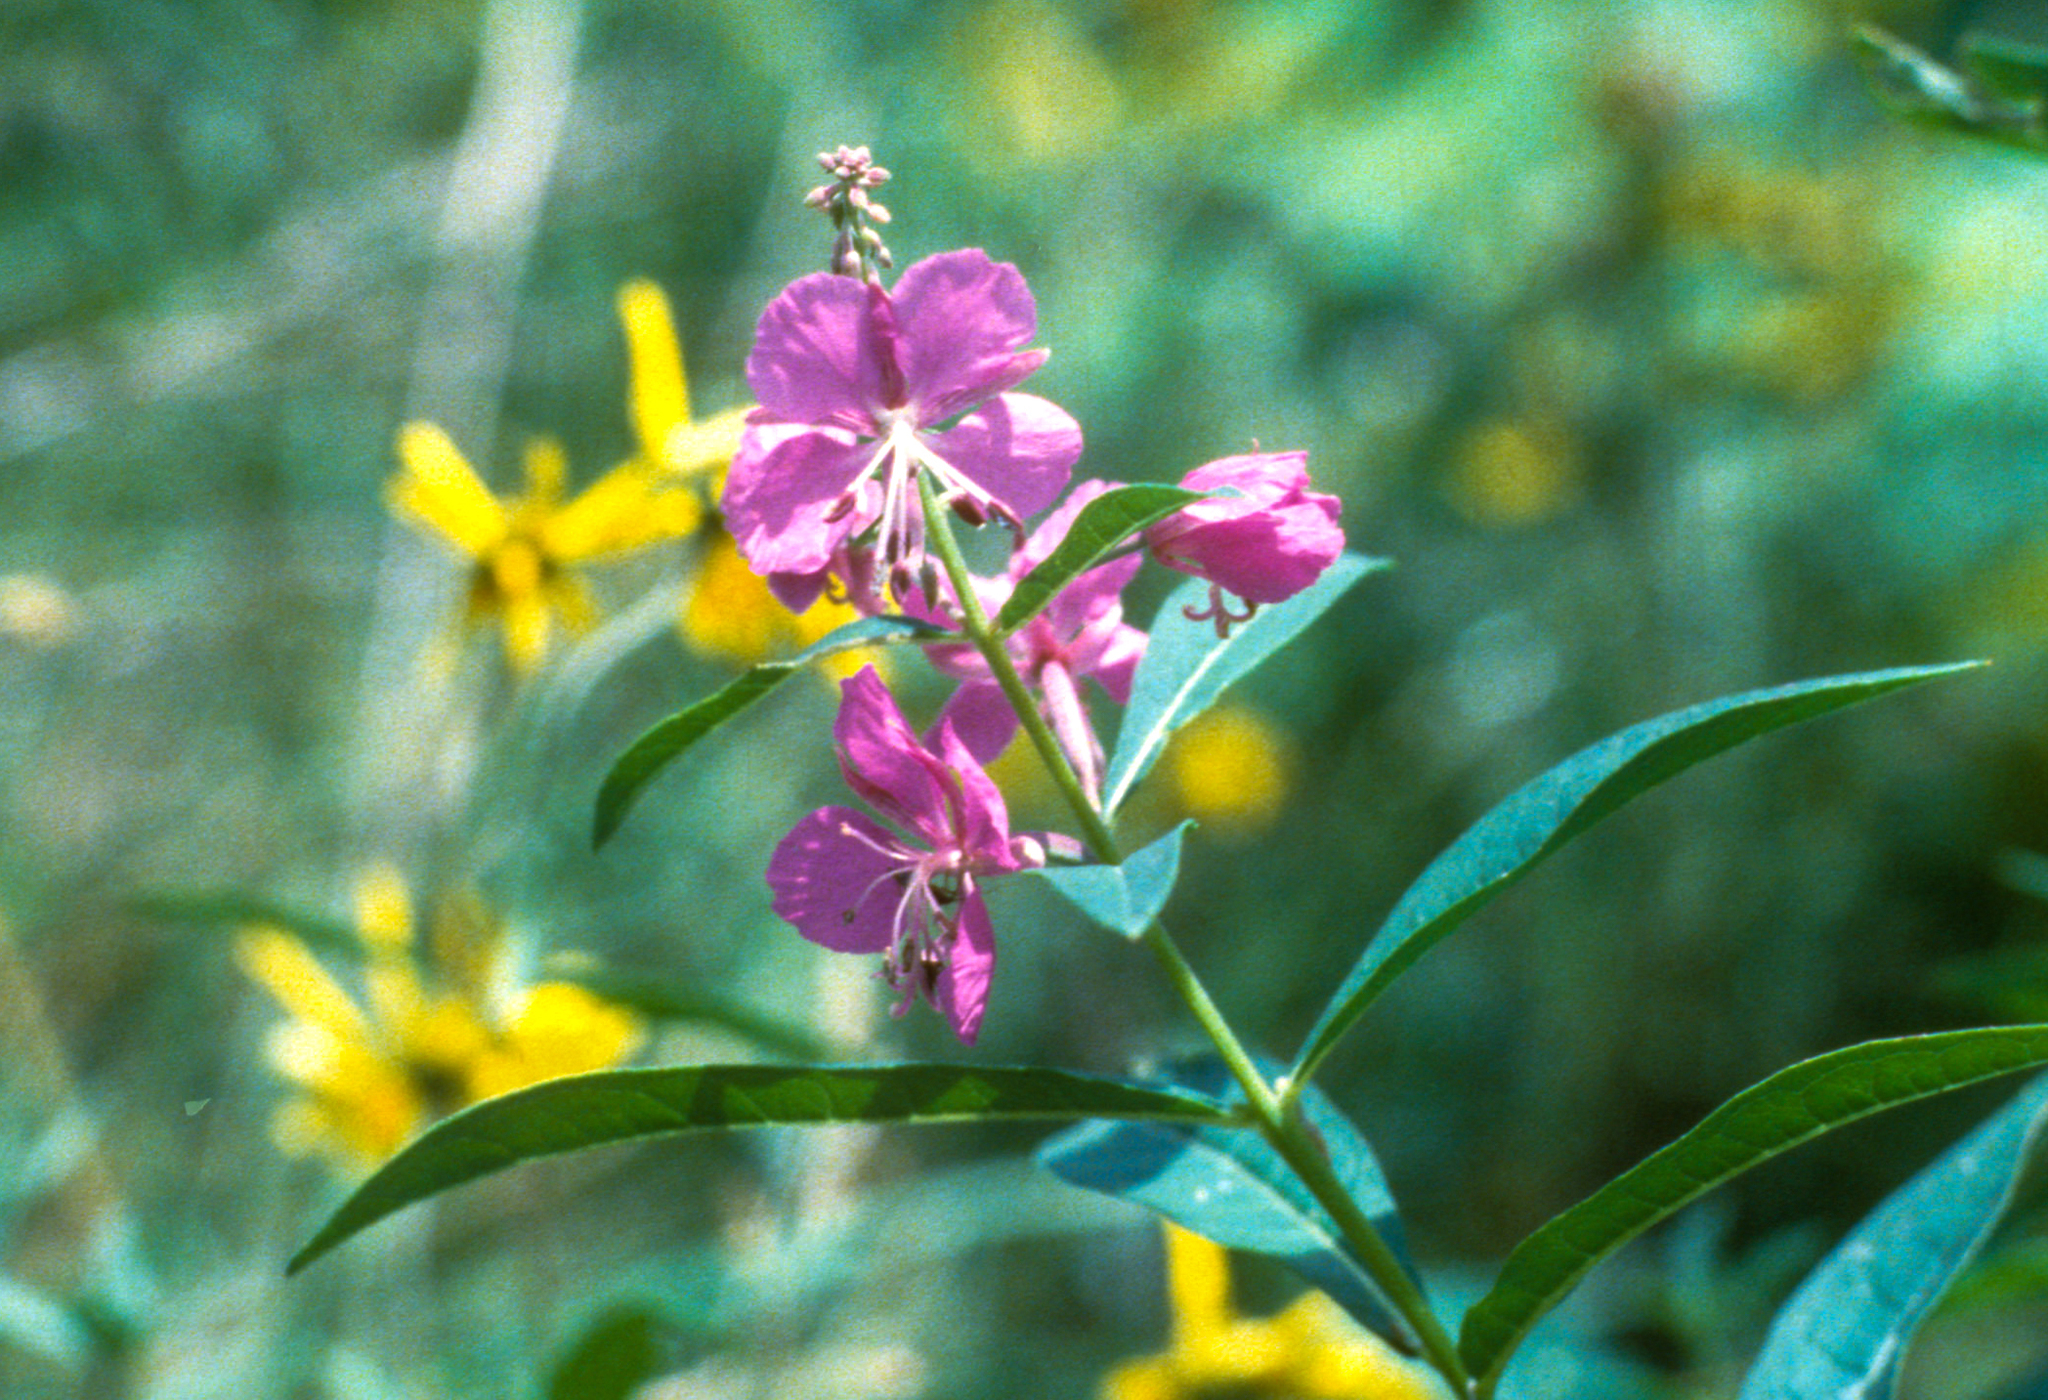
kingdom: Plantae
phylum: Tracheophyta
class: Magnoliopsida
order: Myrtales
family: Onagraceae
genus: Chamaenerion
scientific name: Chamaenerion angustifolium
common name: Fireweed
